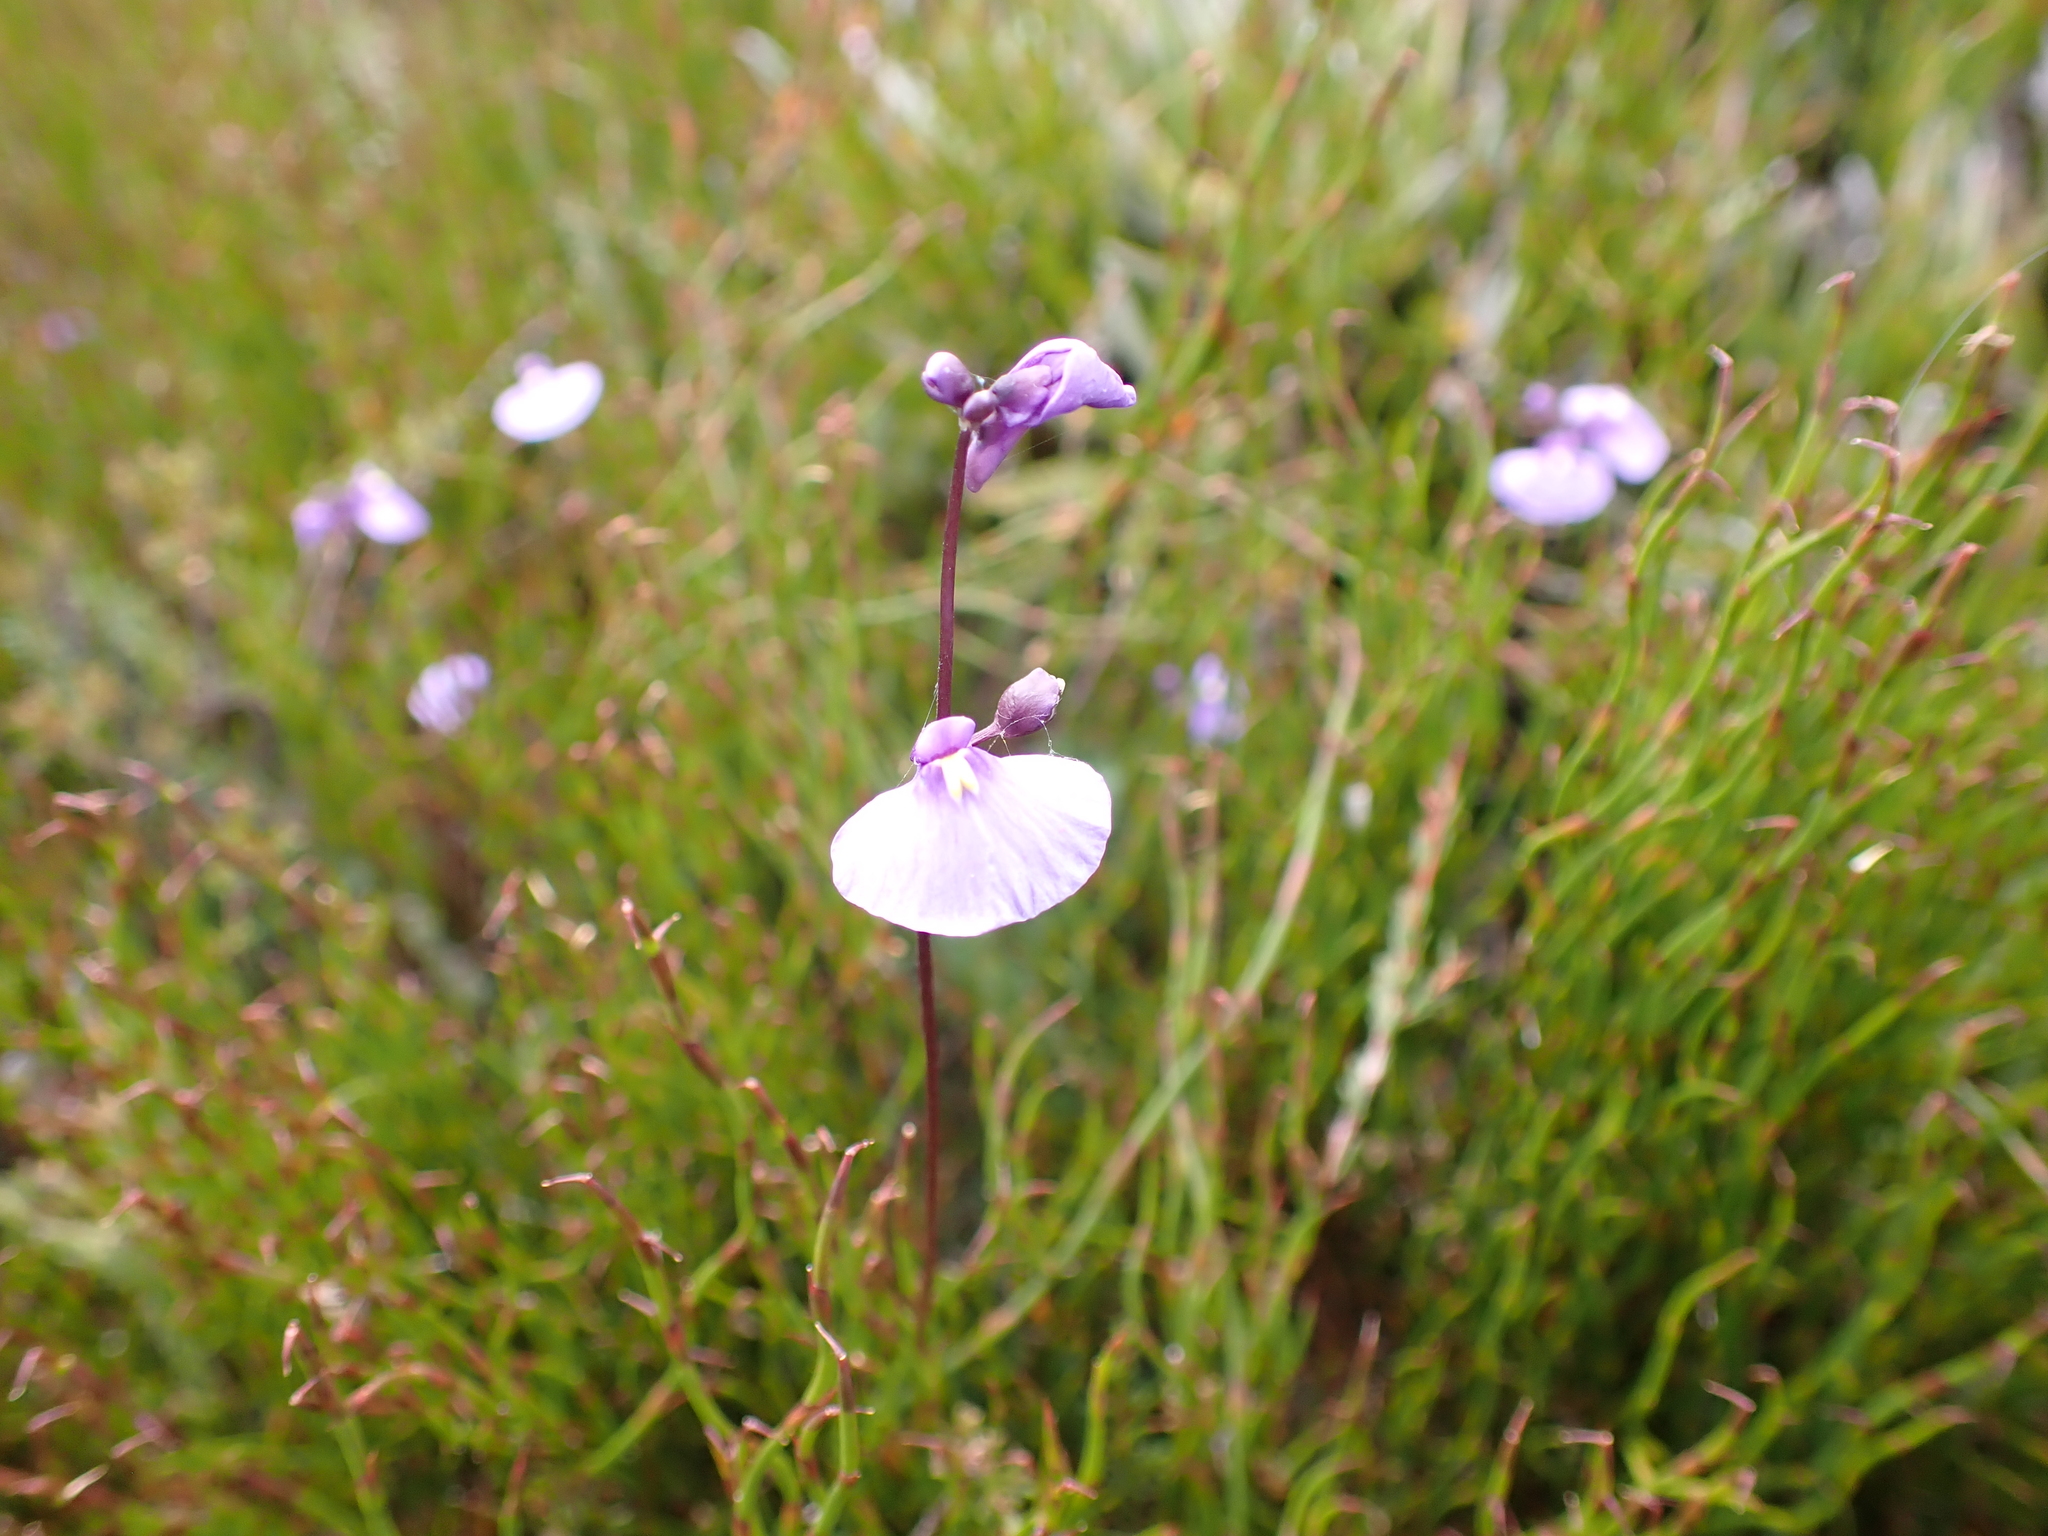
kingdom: Plantae
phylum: Tracheophyta
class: Magnoliopsida
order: Lamiales
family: Lentibulariaceae
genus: Utricularia
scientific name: Utricularia dichotoma
